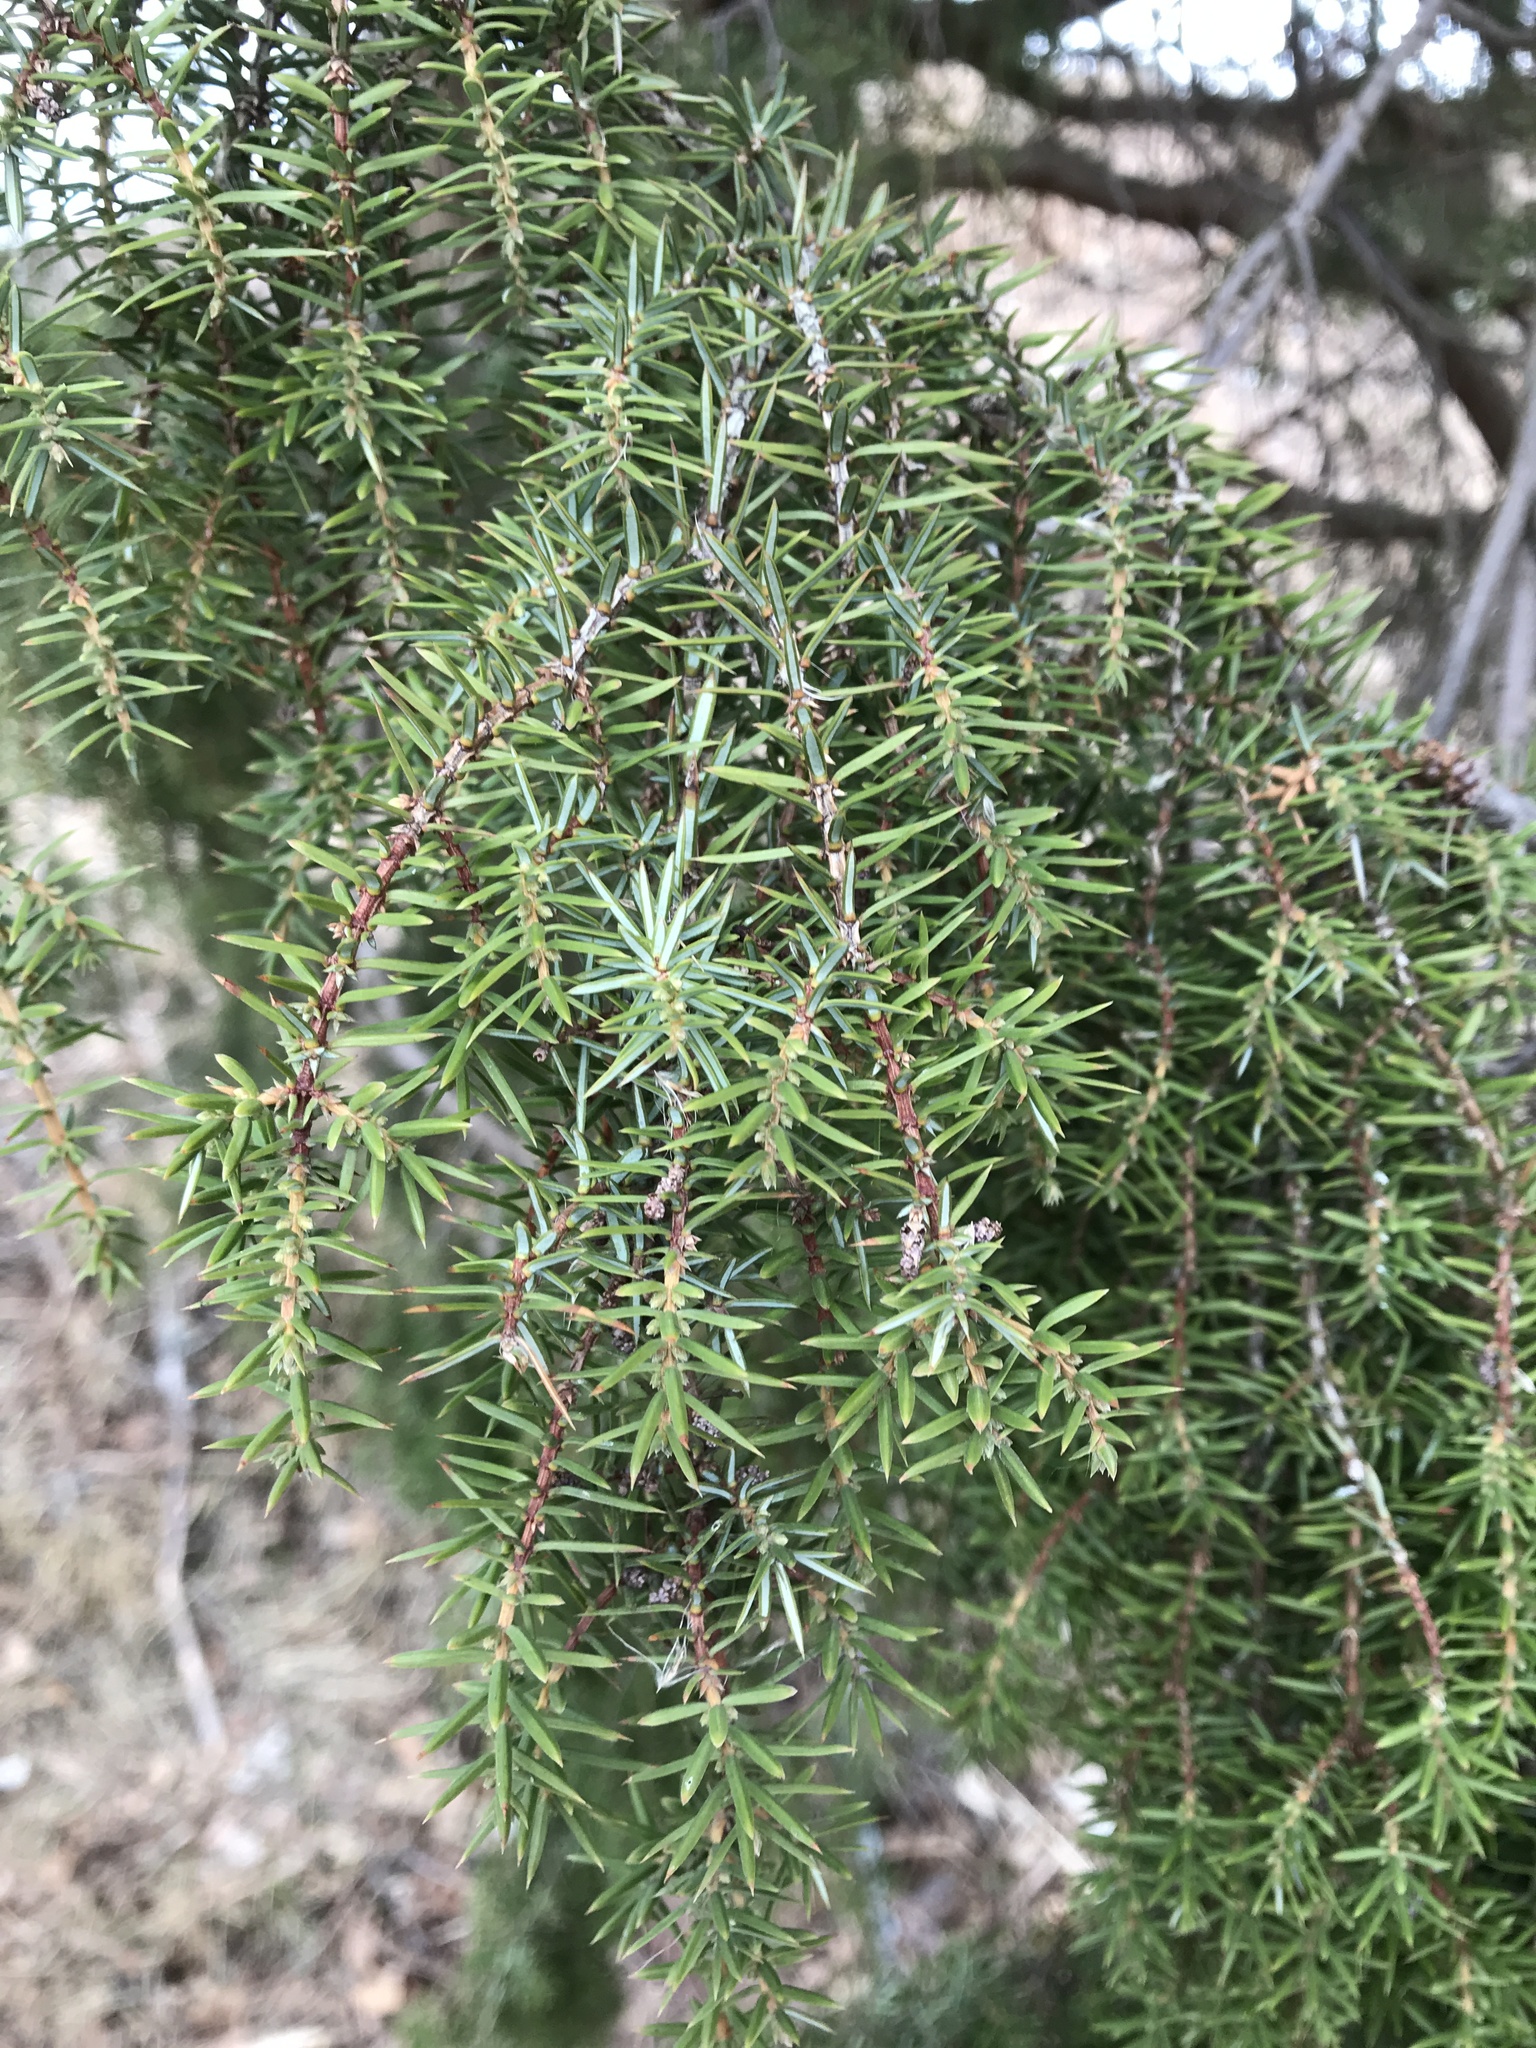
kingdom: Plantae
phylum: Tracheophyta
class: Pinopsida
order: Pinales
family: Cupressaceae
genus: Juniperus
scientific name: Juniperus communis
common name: Common juniper
